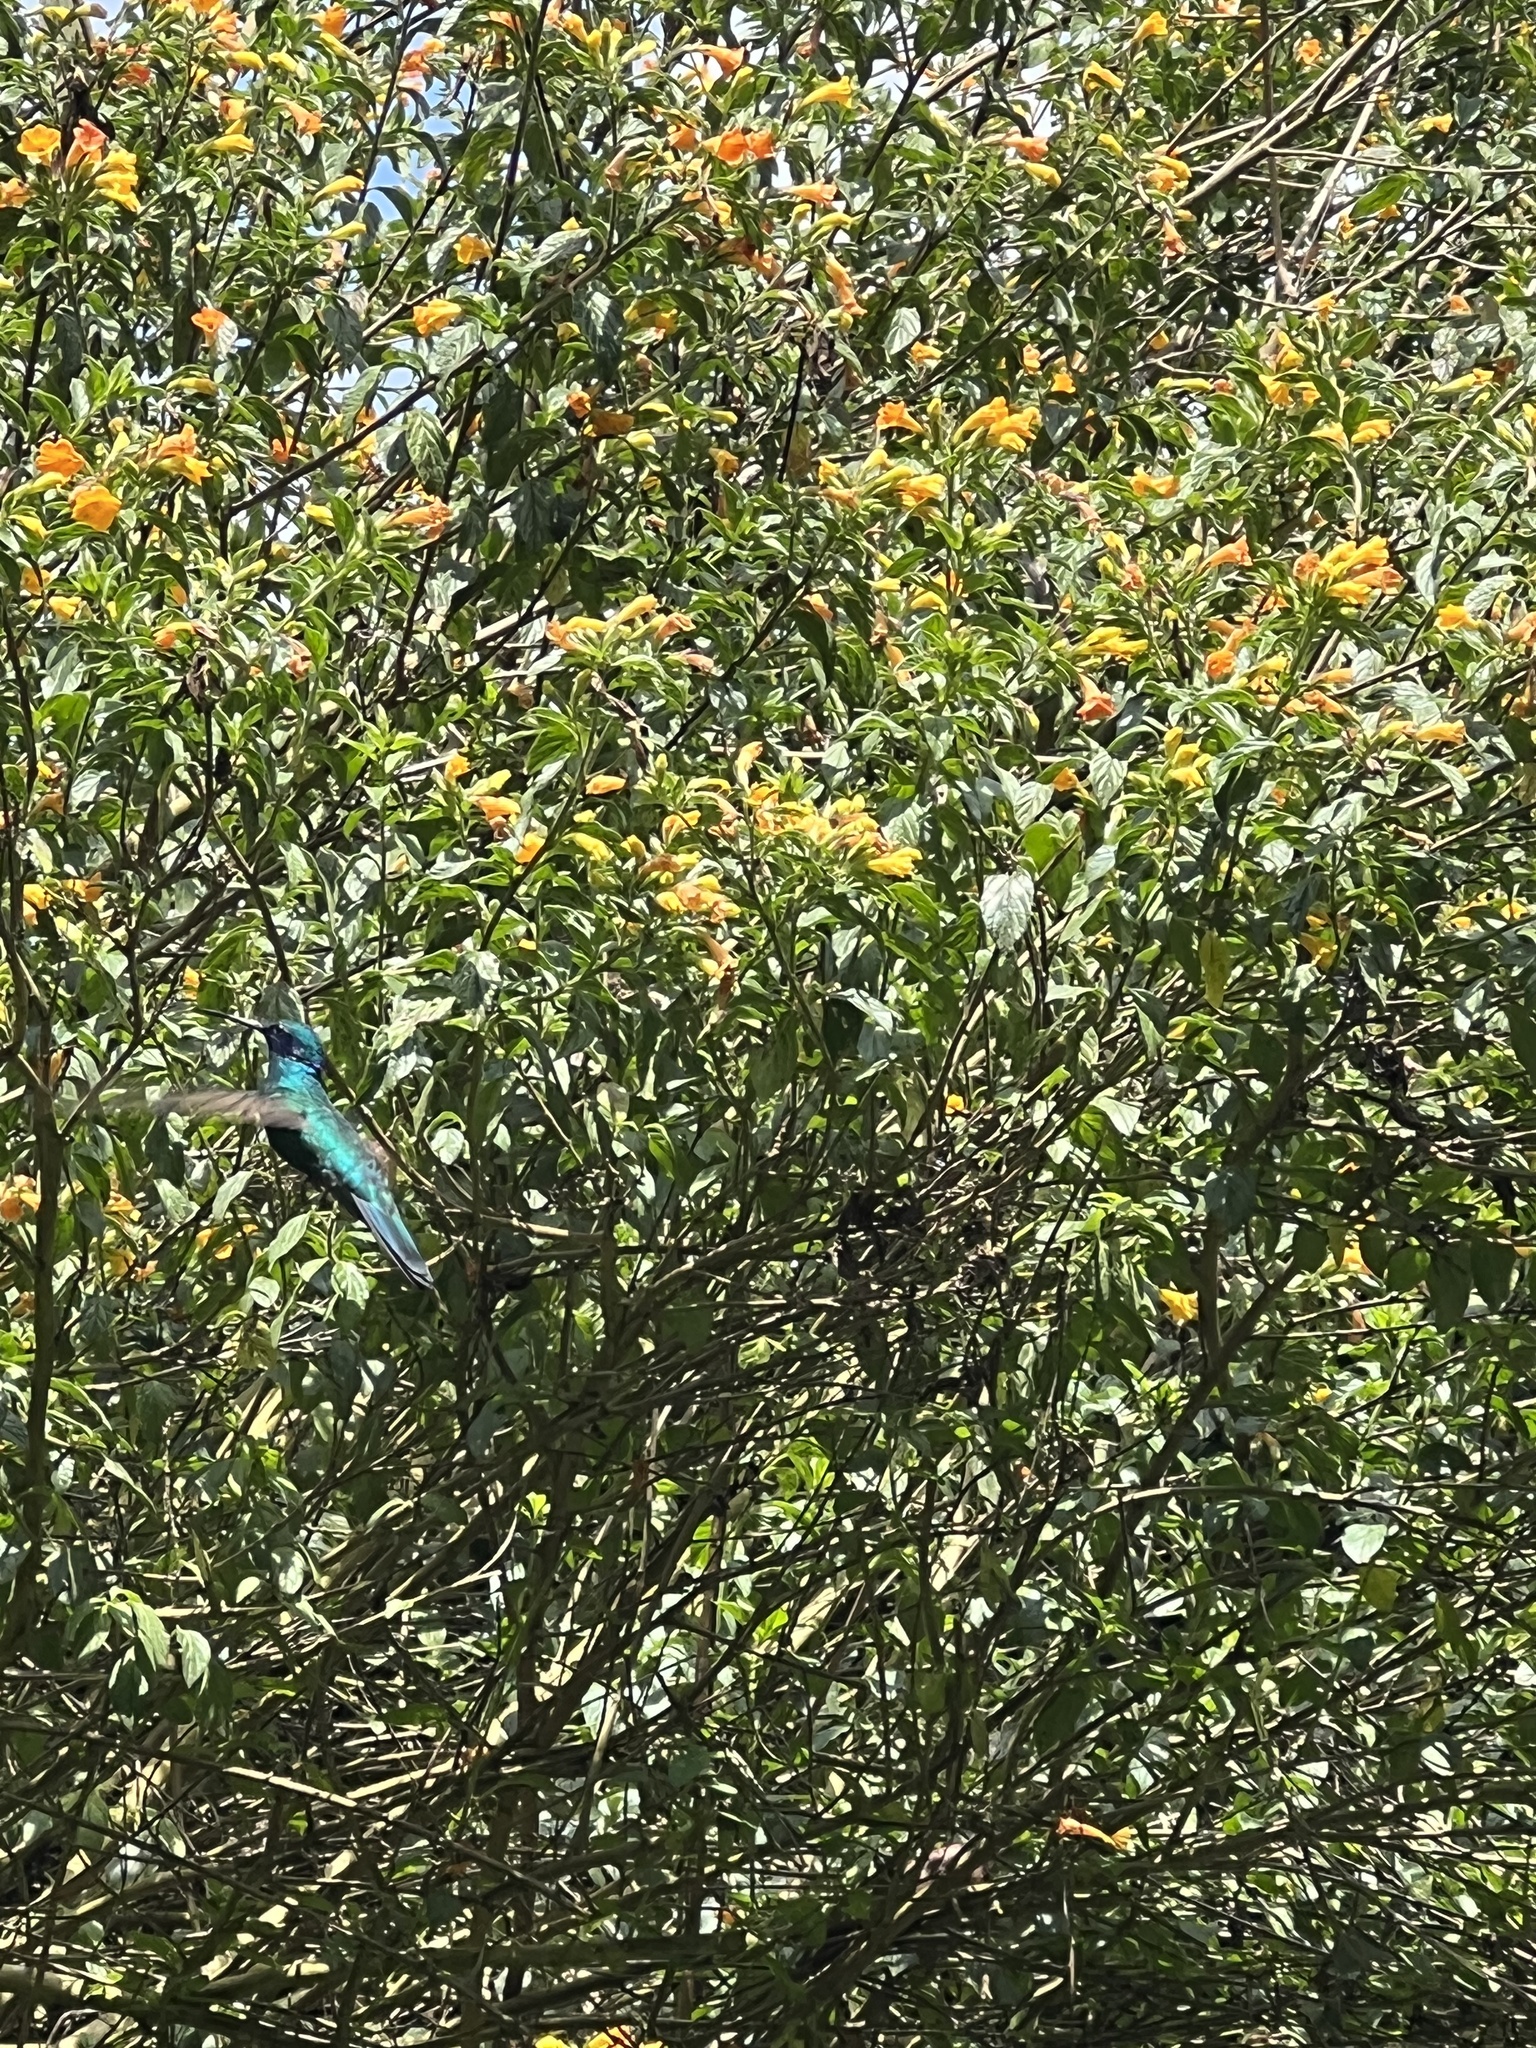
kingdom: Animalia
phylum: Chordata
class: Aves
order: Apodiformes
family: Trochilidae
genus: Colibri
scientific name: Colibri coruscans
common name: Sparkling violetear
